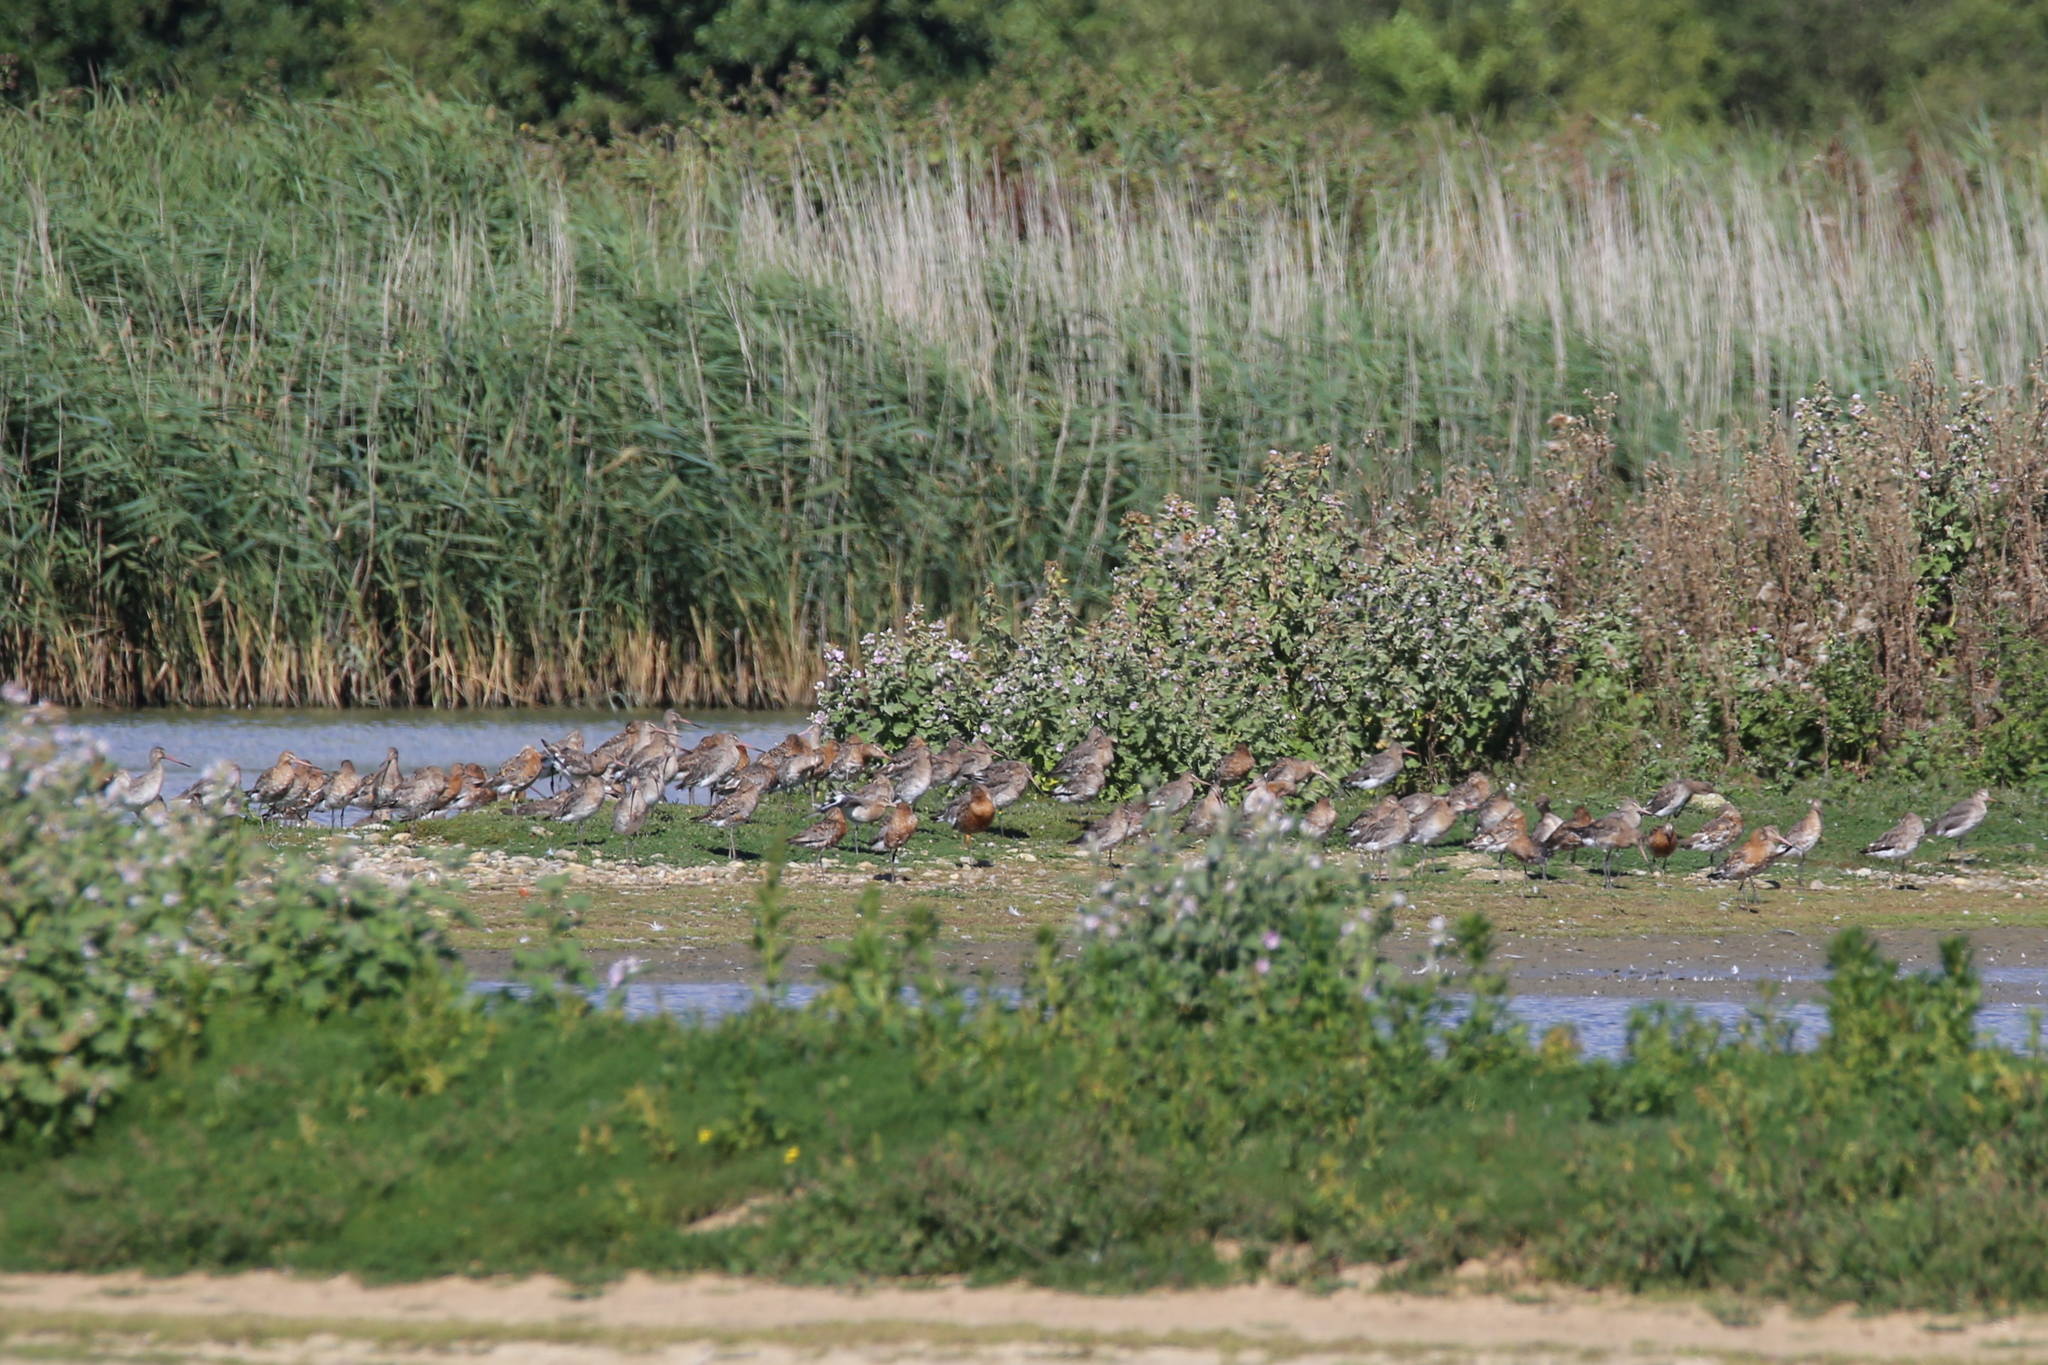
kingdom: Animalia
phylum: Chordata
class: Aves
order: Charadriiformes
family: Scolopacidae
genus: Limosa
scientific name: Limosa limosa
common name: Black-tailed godwit
